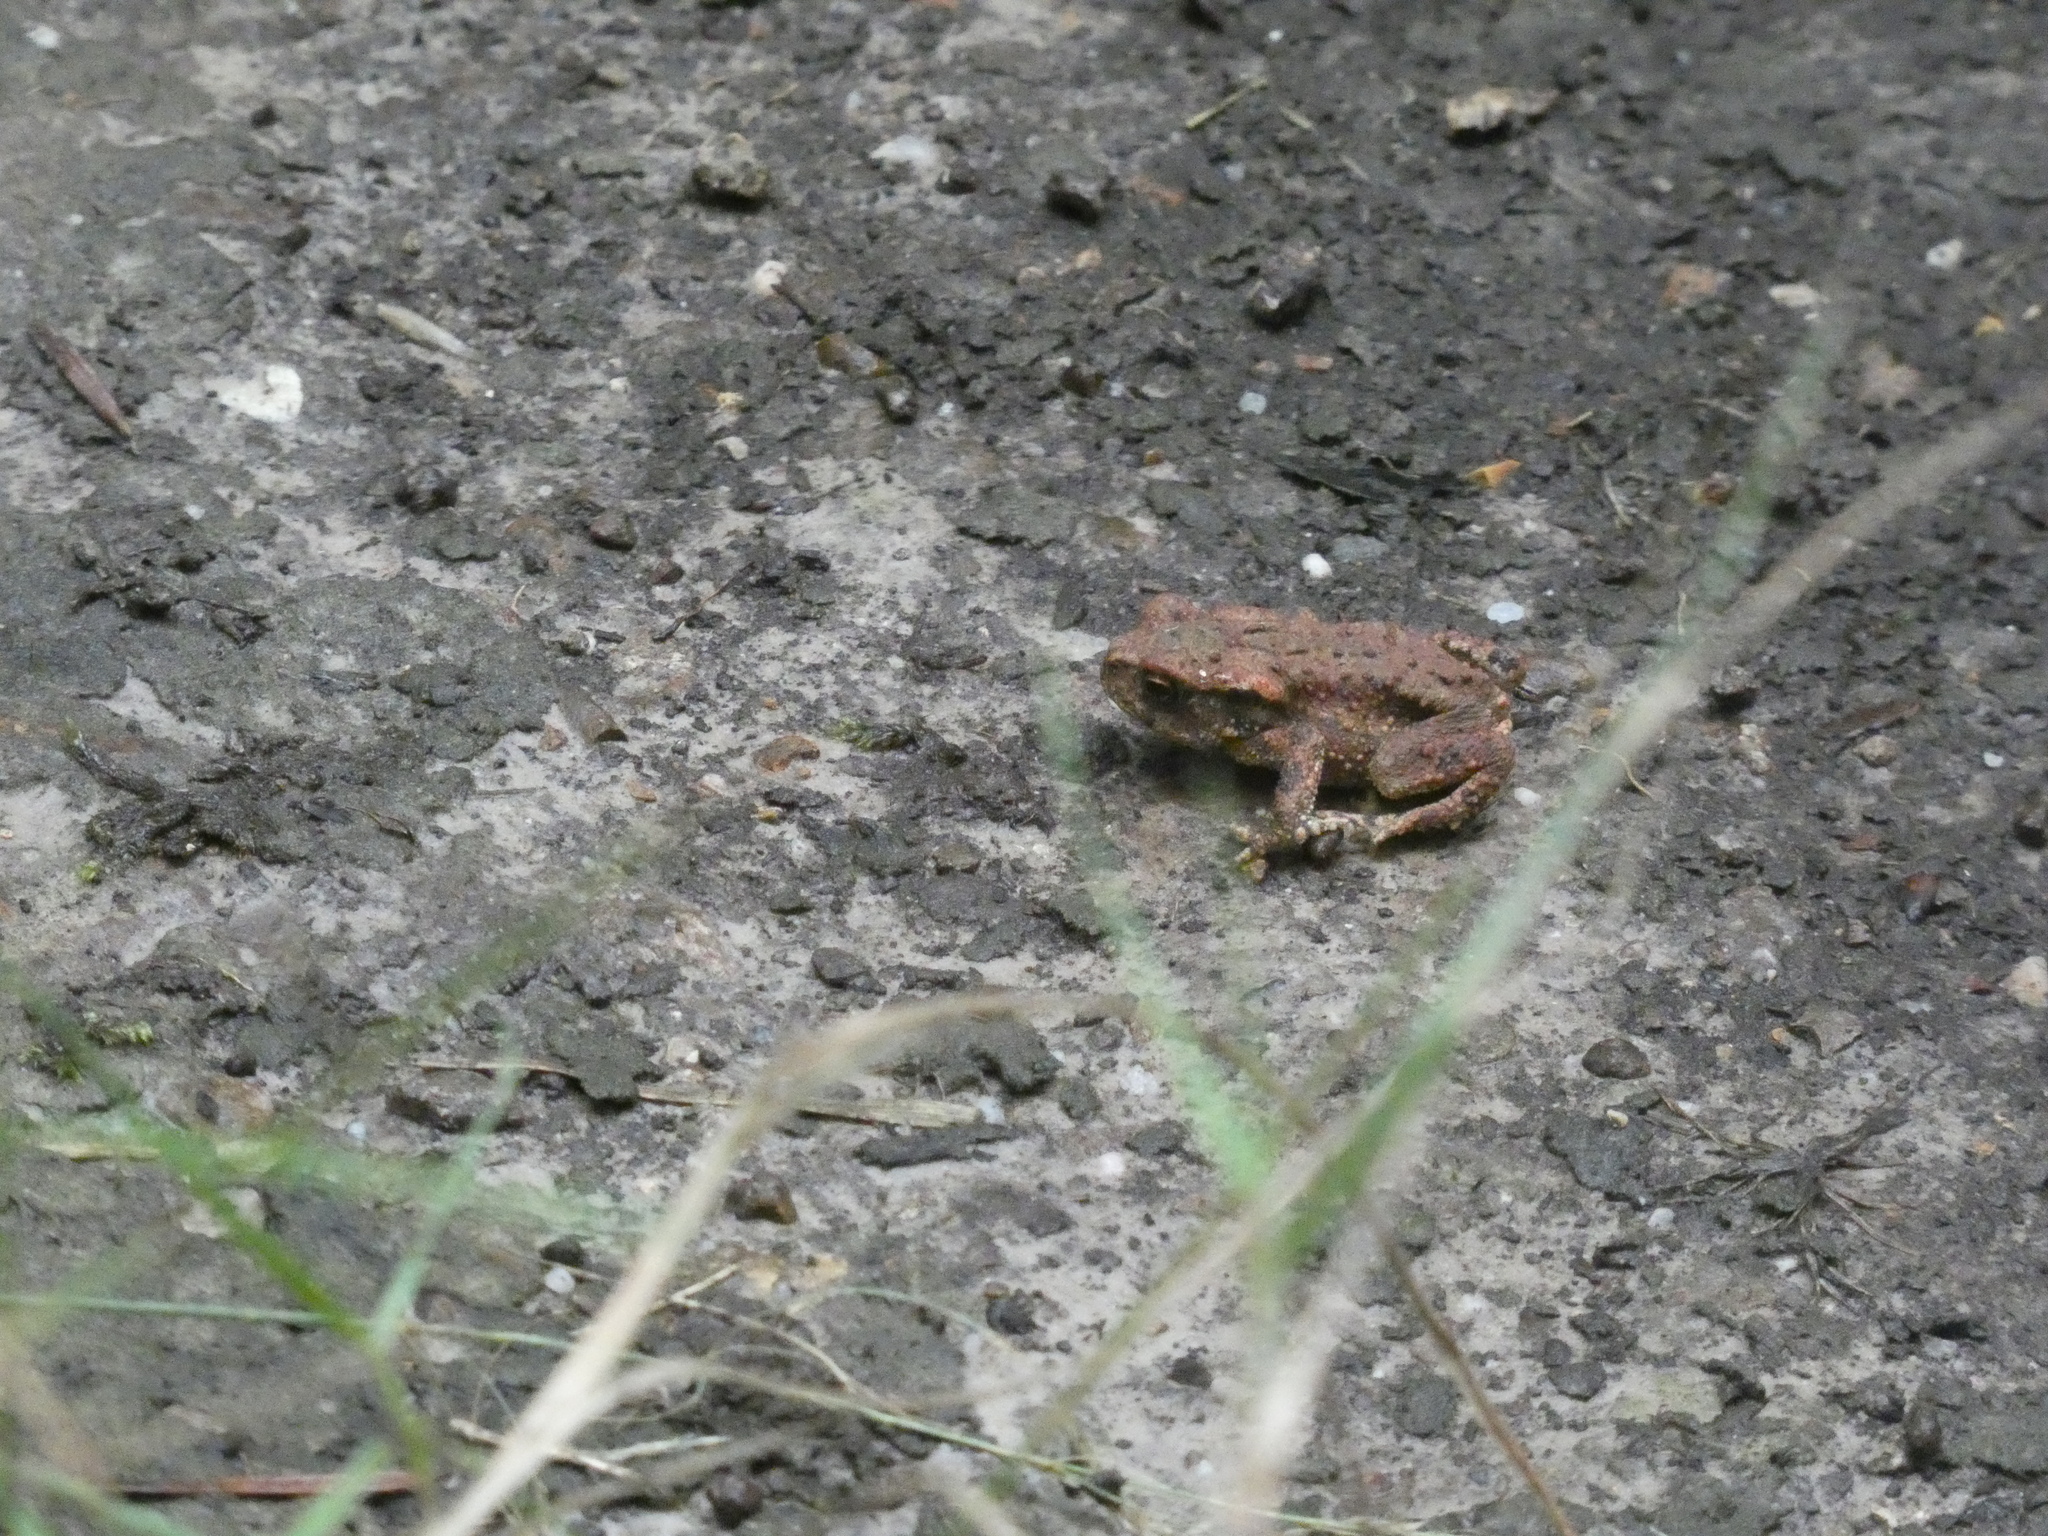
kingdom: Animalia
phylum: Chordata
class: Amphibia
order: Anura
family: Bufonidae
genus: Bufo
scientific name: Bufo spinosus
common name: Western common toad
